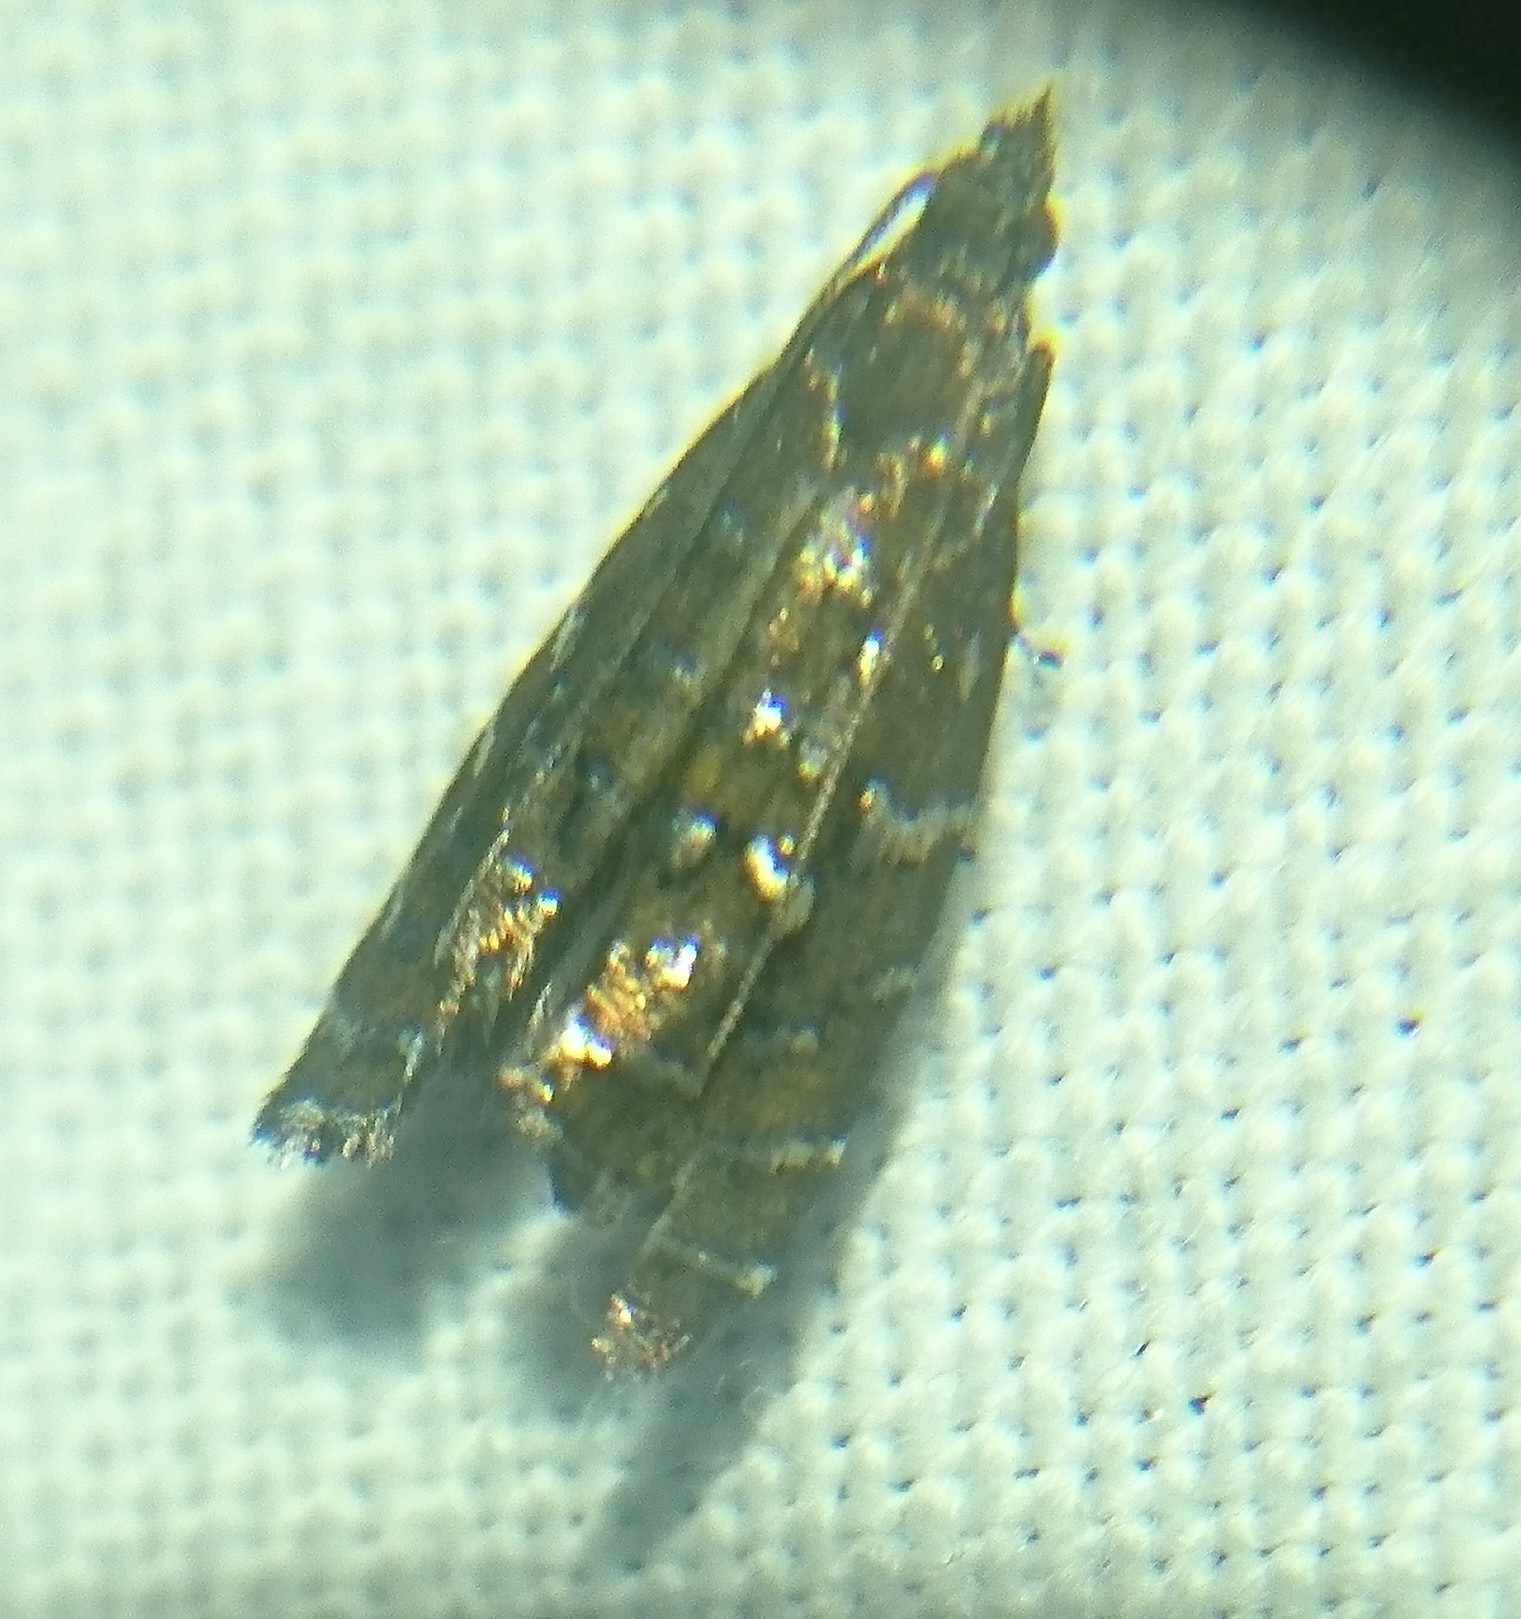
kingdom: Animalia
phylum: Arthropoda
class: Insecta
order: Lepidoptera
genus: Drymoana
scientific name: Drymoana
